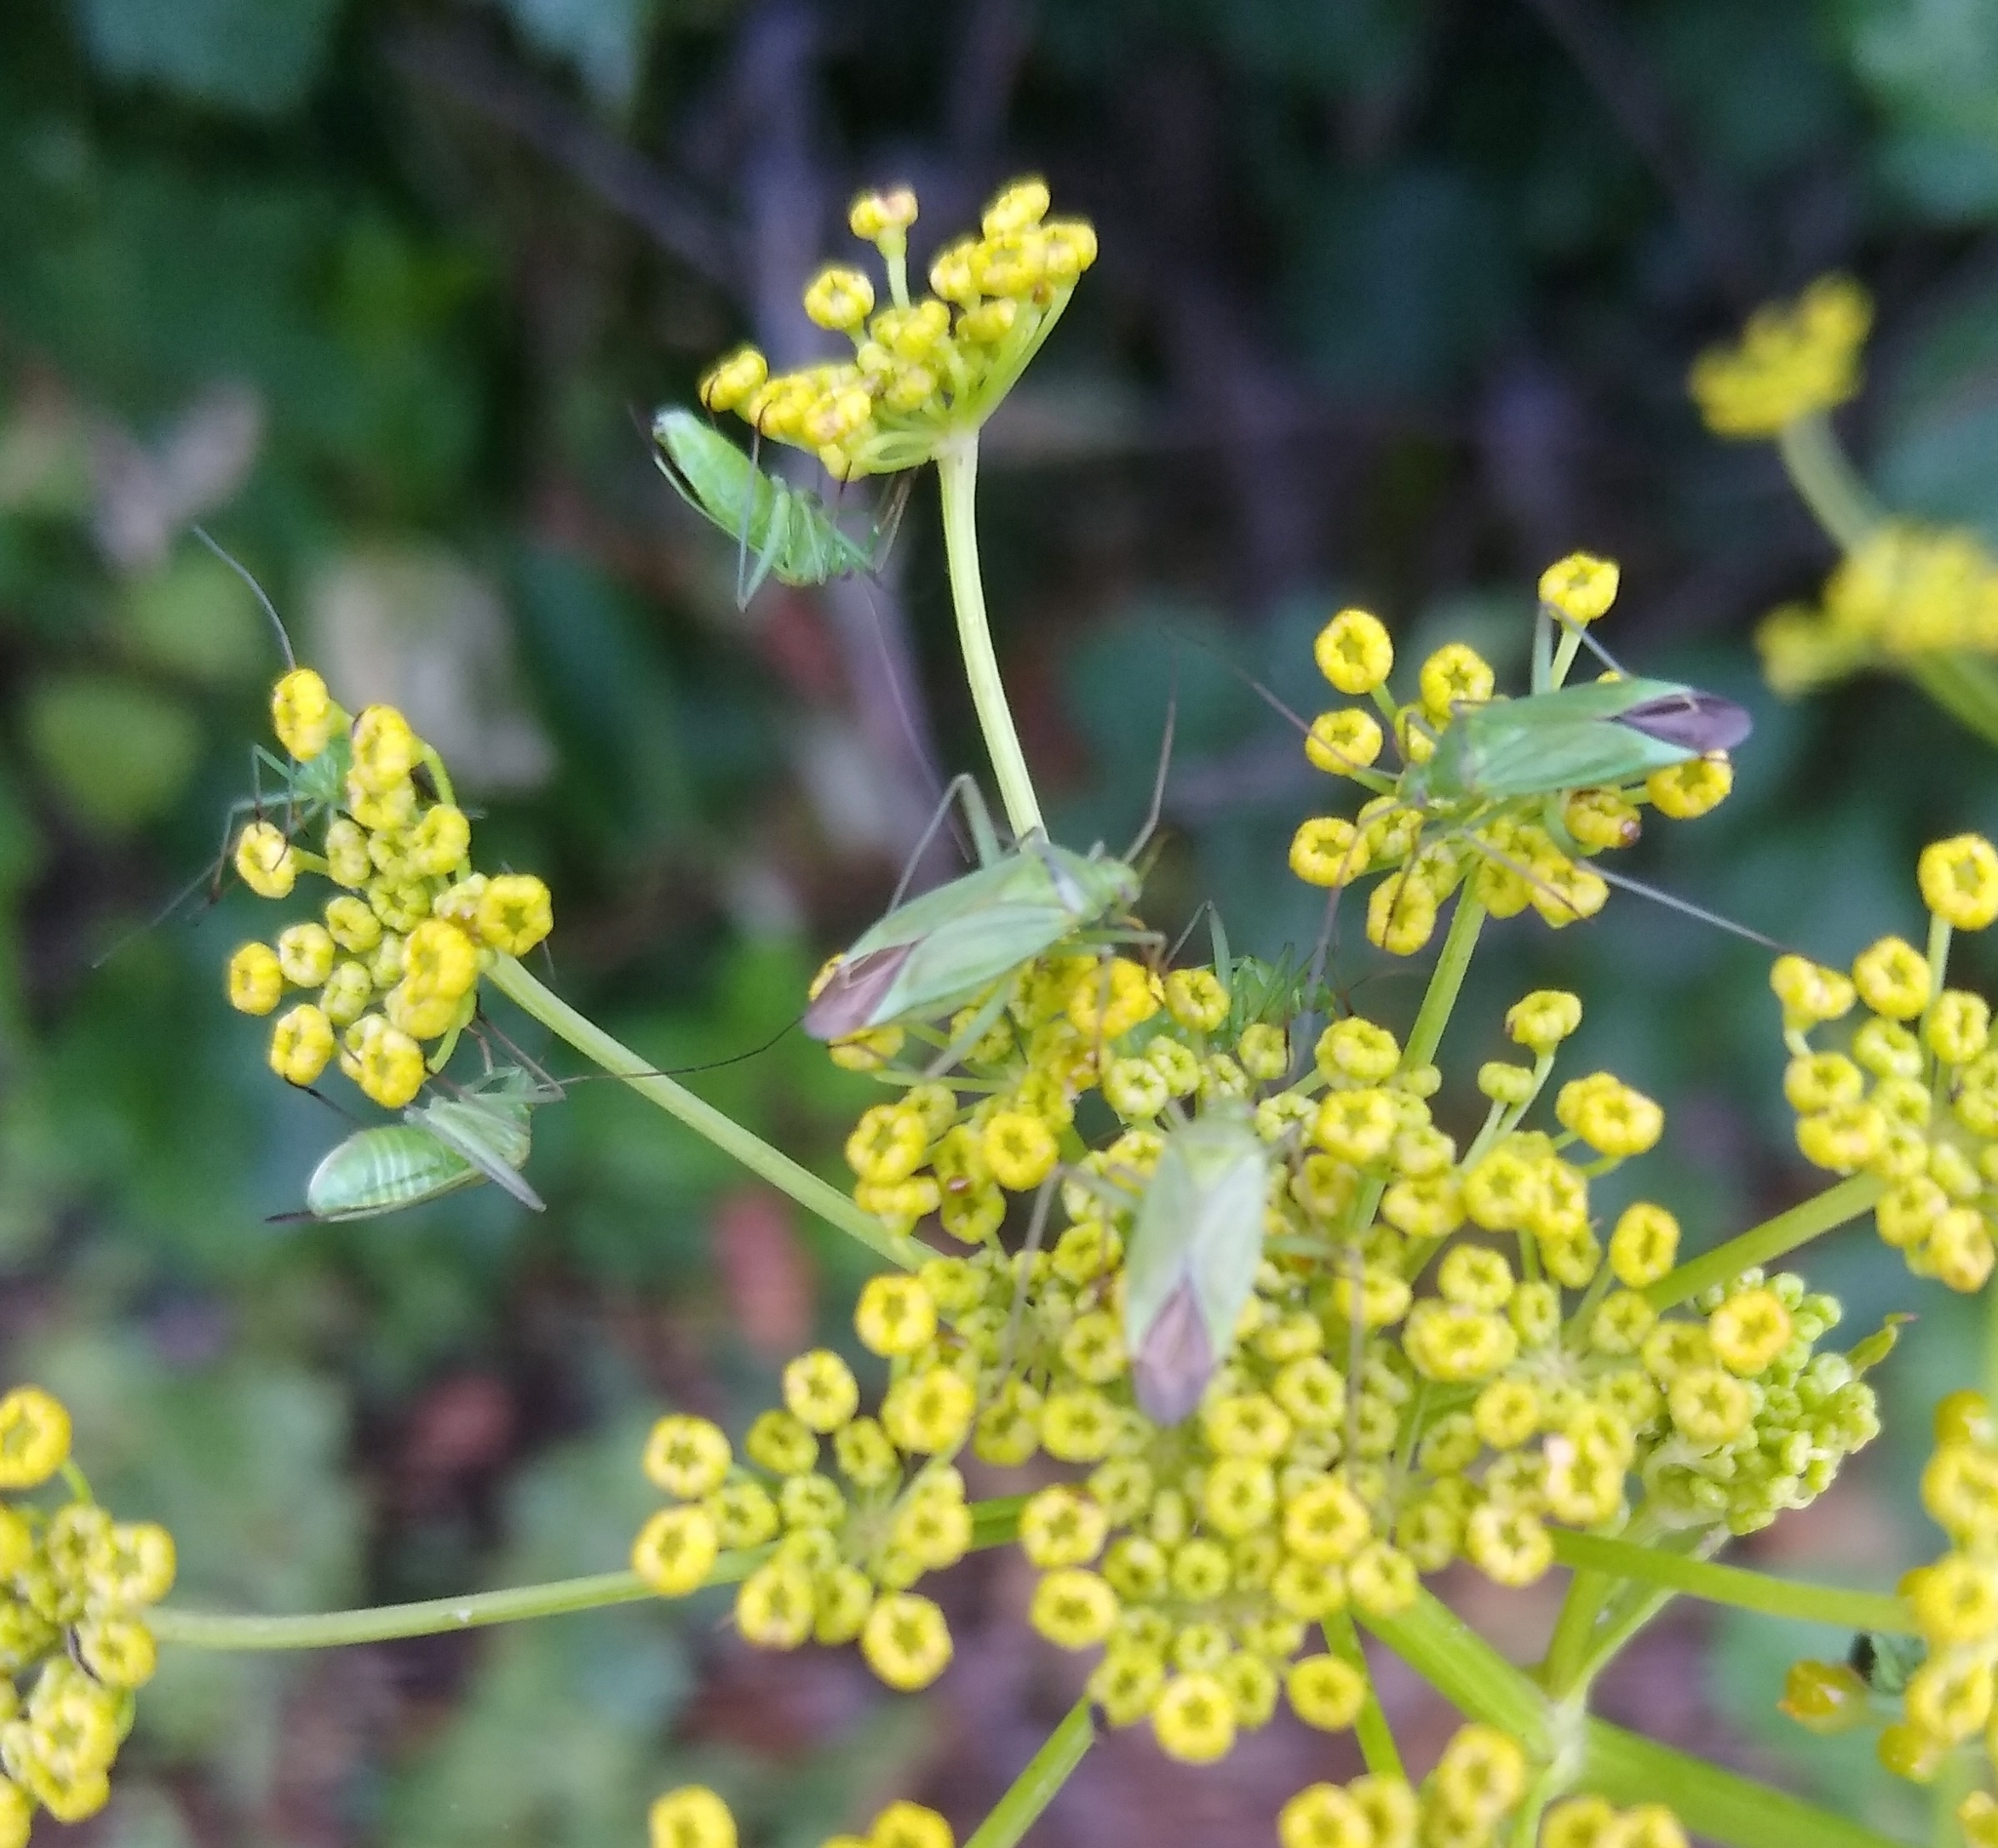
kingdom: Animalia
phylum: Arthropoda
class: Insecta
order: Hemiptera
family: Miridae
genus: Calocoris
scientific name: Calocoris affinis
